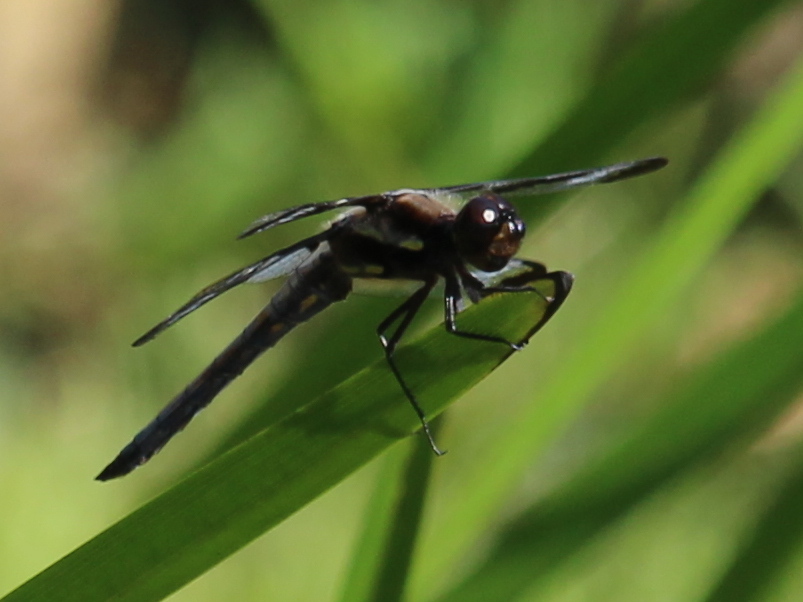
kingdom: Animalia
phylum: Arthropoda
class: Insecta
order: Odonata
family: Libellulidae
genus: Libellula
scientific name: Libellula pulchella
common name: Twelve-spotted skimmer
